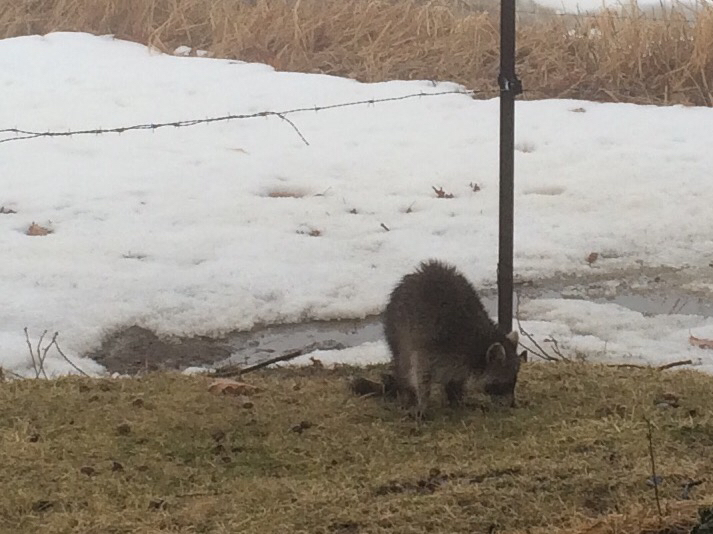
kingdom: Animalia
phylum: Chordata
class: Mammalia
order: Carnivora
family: Procyonidae
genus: Procyon
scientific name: Procyon lotor
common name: Raccoon
